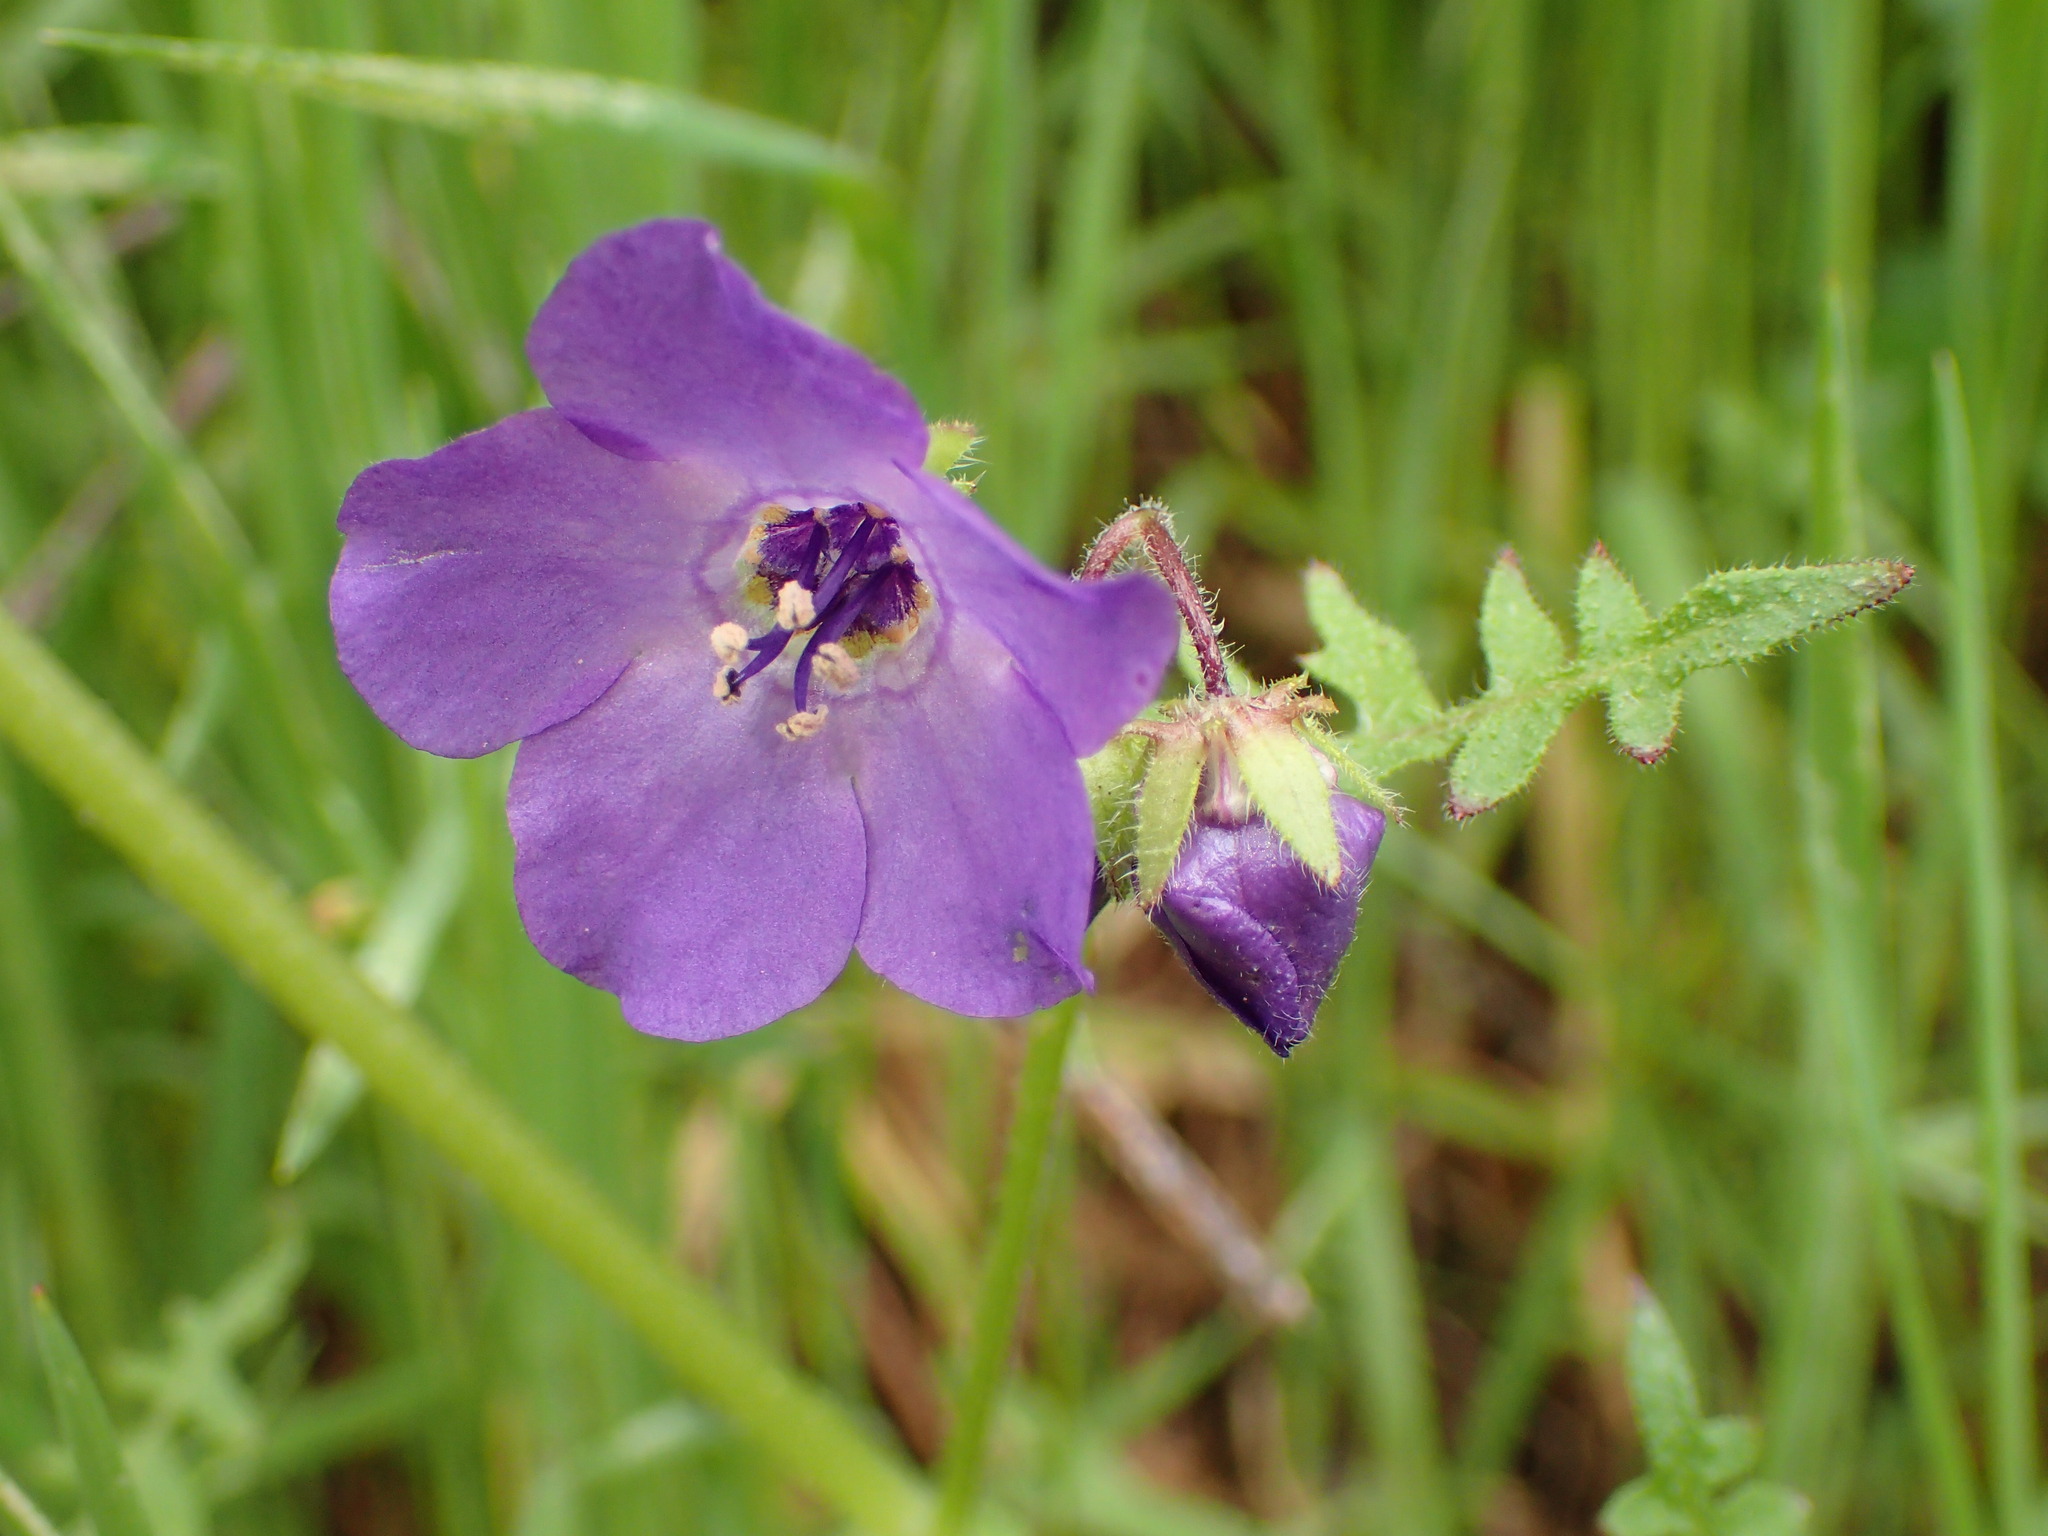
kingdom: Plantae
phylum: Tracheophyta
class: Magnoliopsida
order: Boraginales
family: Hydrophyllaceae
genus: Pholistoma
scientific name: Pholistoma auritum
